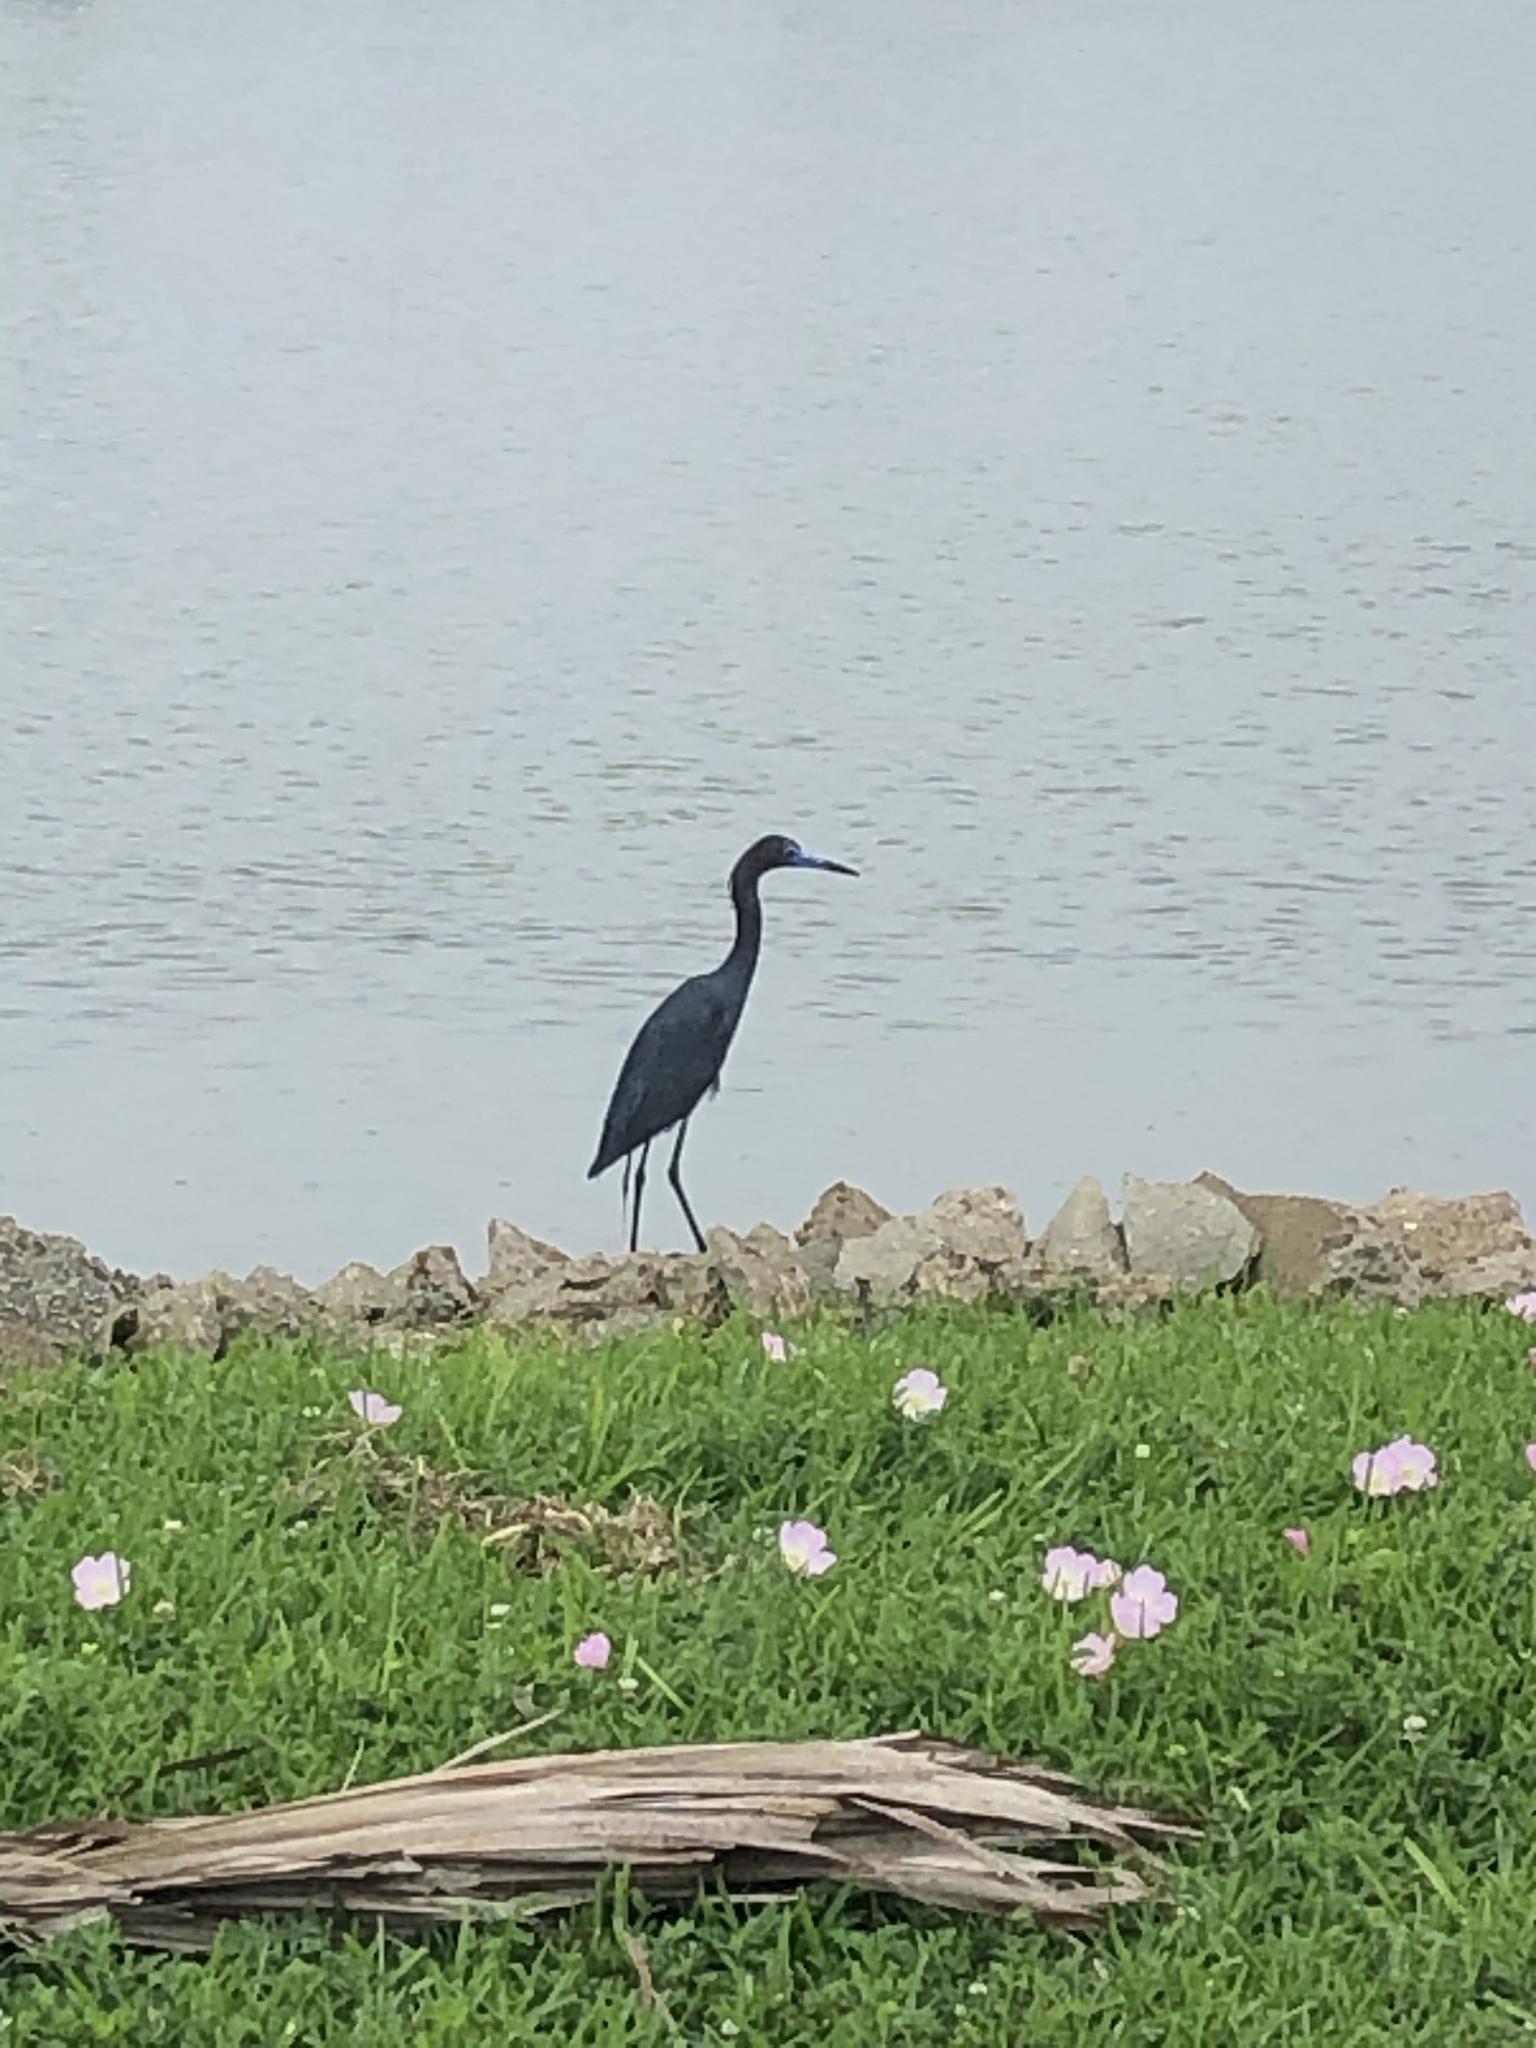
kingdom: Animalia
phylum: Chordata
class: Aves
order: Pelecaniformes
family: Ardeidae
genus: Egretta
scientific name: Egretta caerulea
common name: Little blue heron
